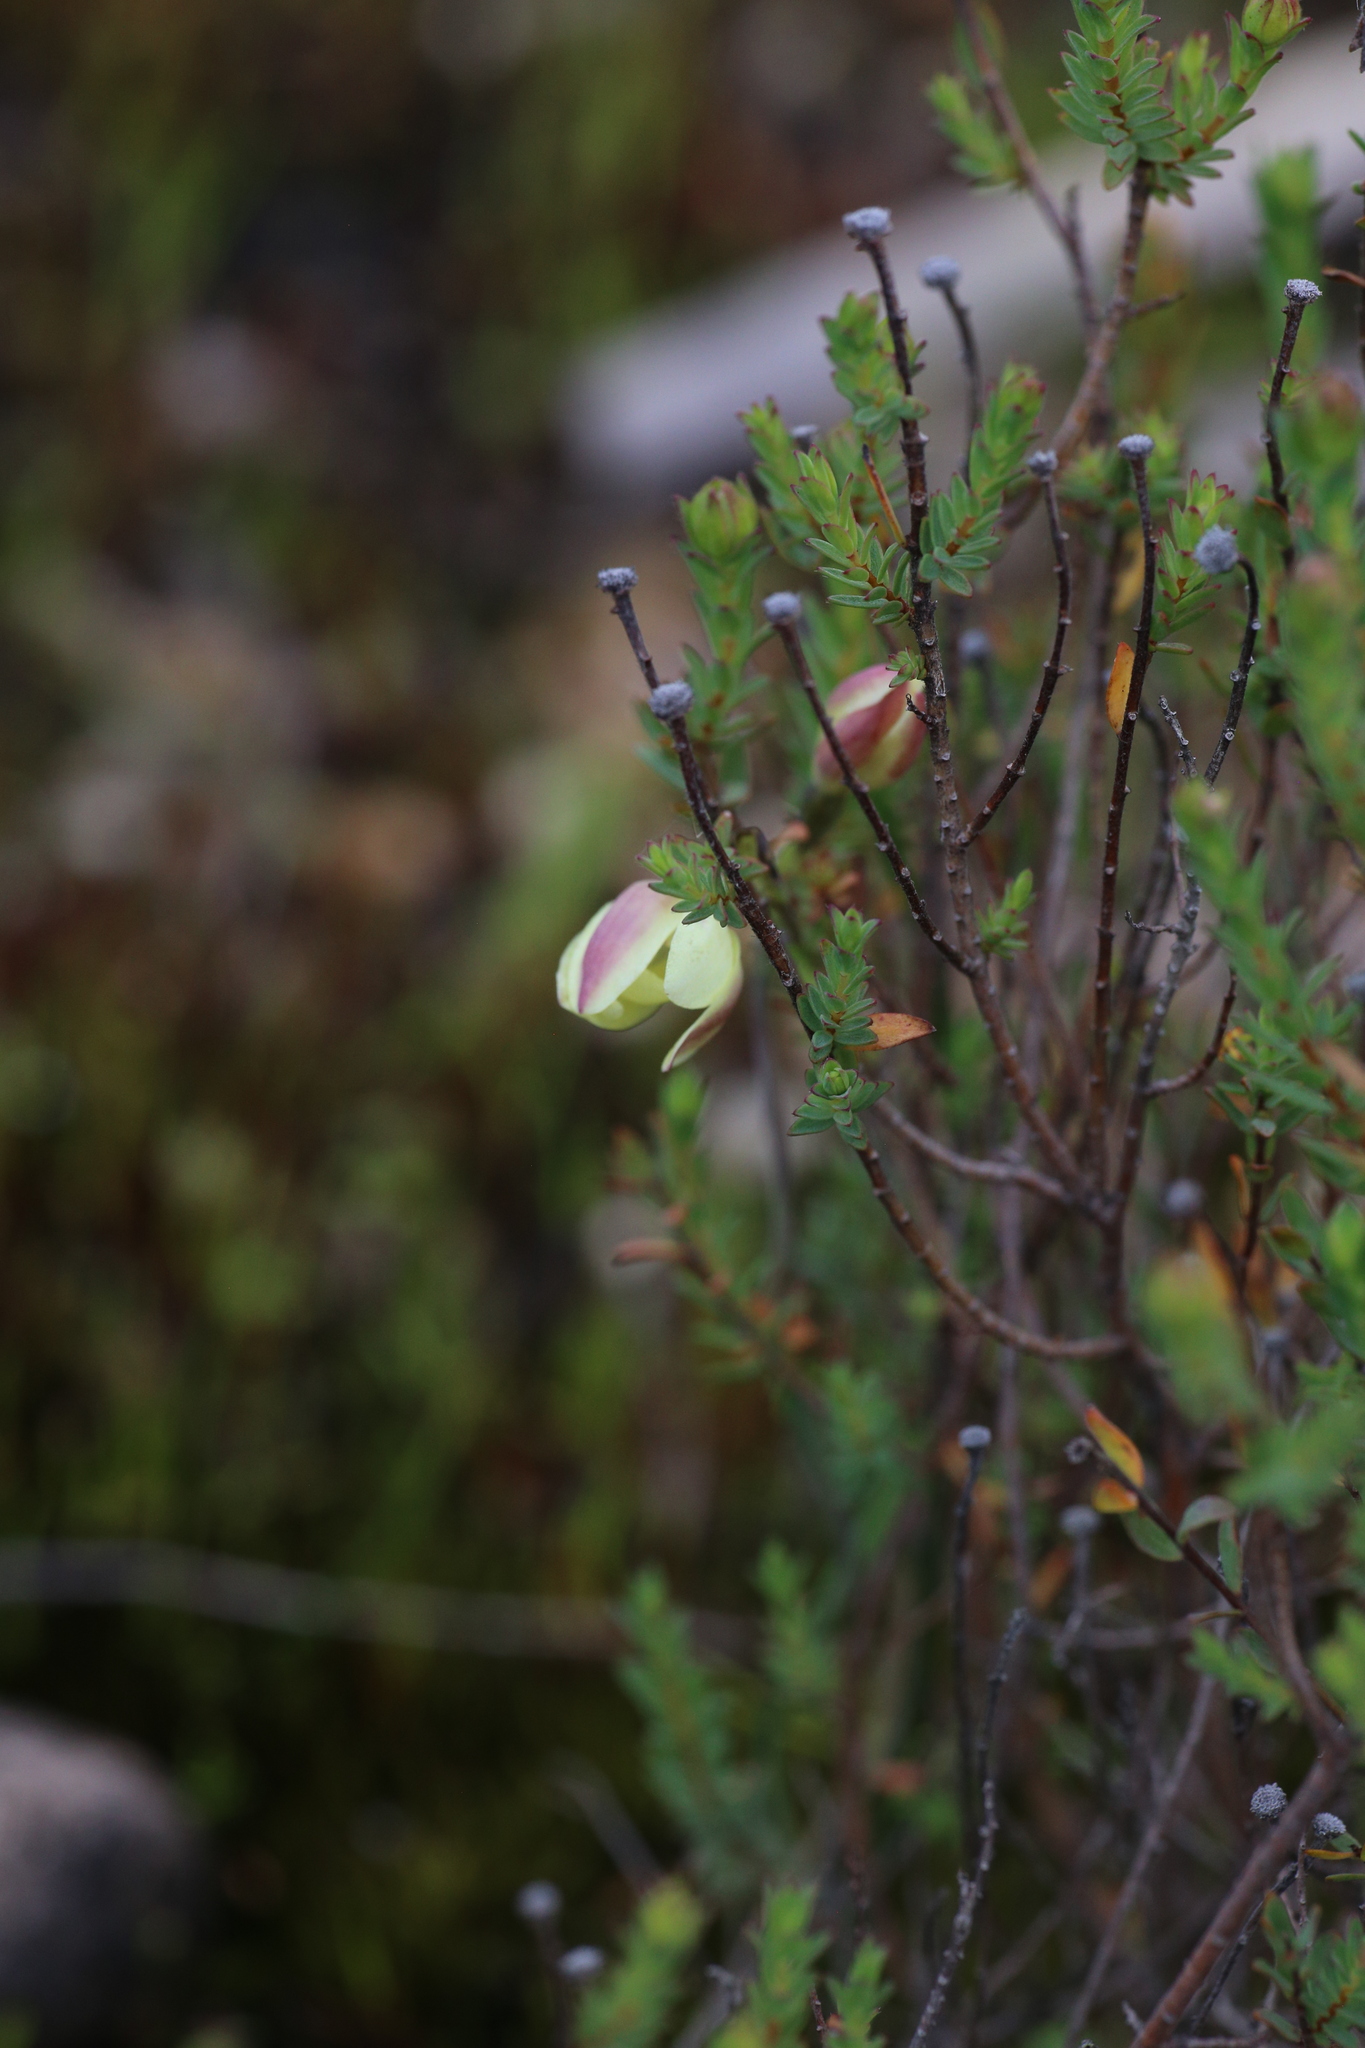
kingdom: Plantae
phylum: Tracheophyta
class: Liliopsida
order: Asparagales
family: Orchidaceae
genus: Thelymitra
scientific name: Thelymitra antennifera
